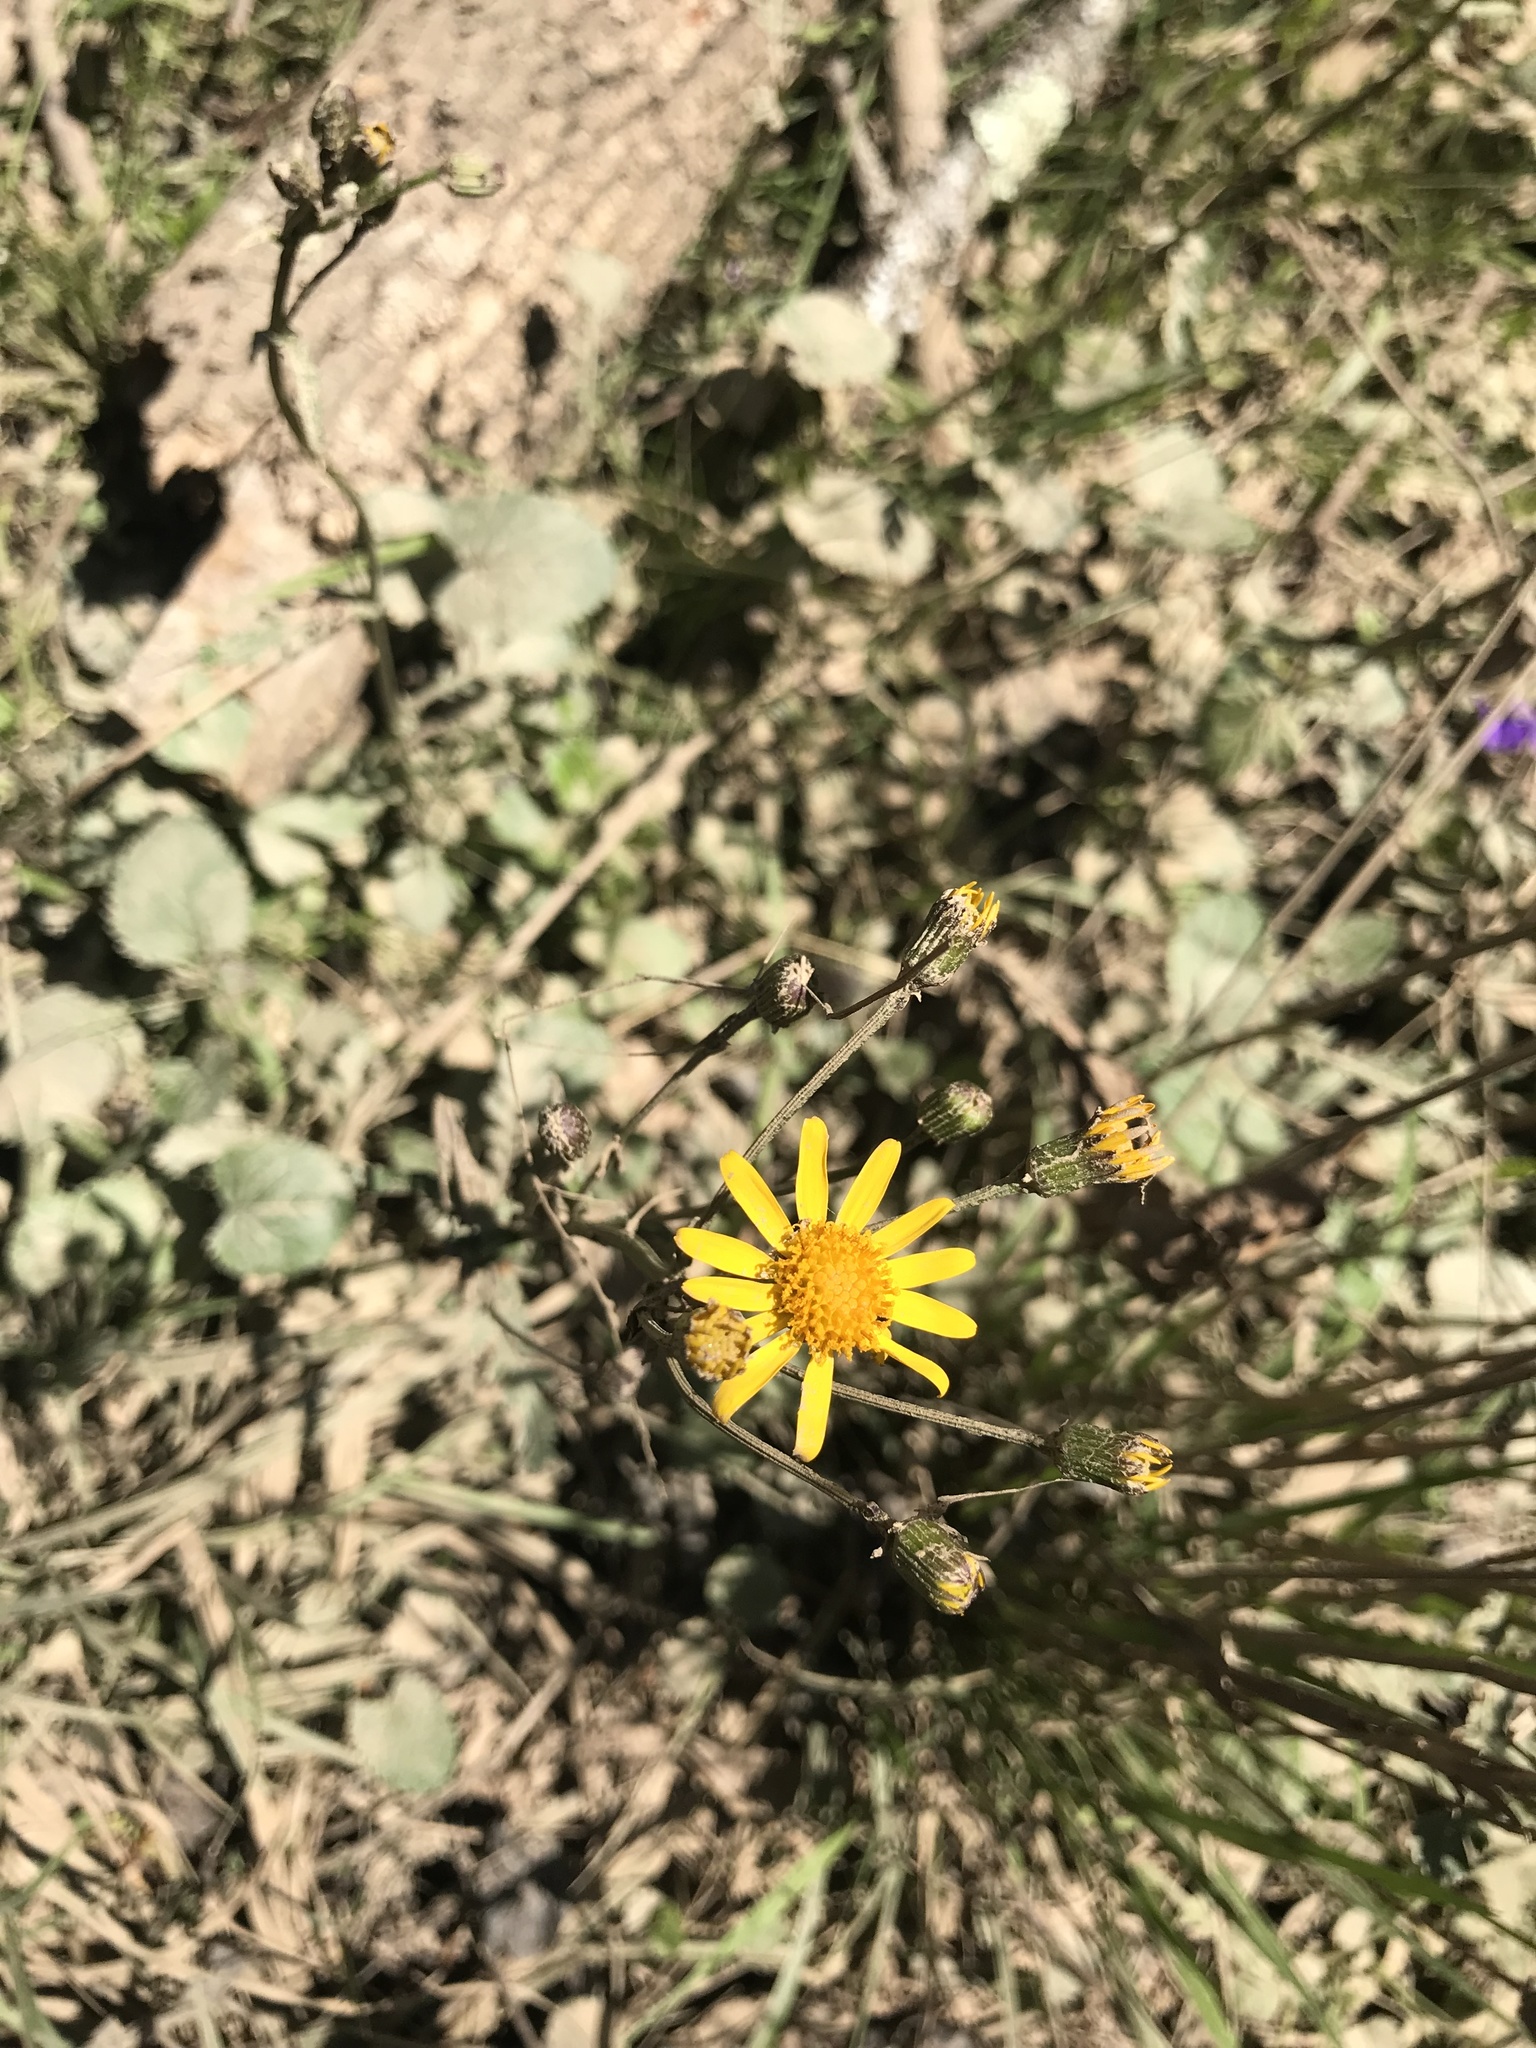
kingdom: Plantae
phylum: Tracheophyta
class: Magnoliopsida
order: Asterales
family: Asteraceae
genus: Packera
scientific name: Packera aurea
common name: Golden groundsel
